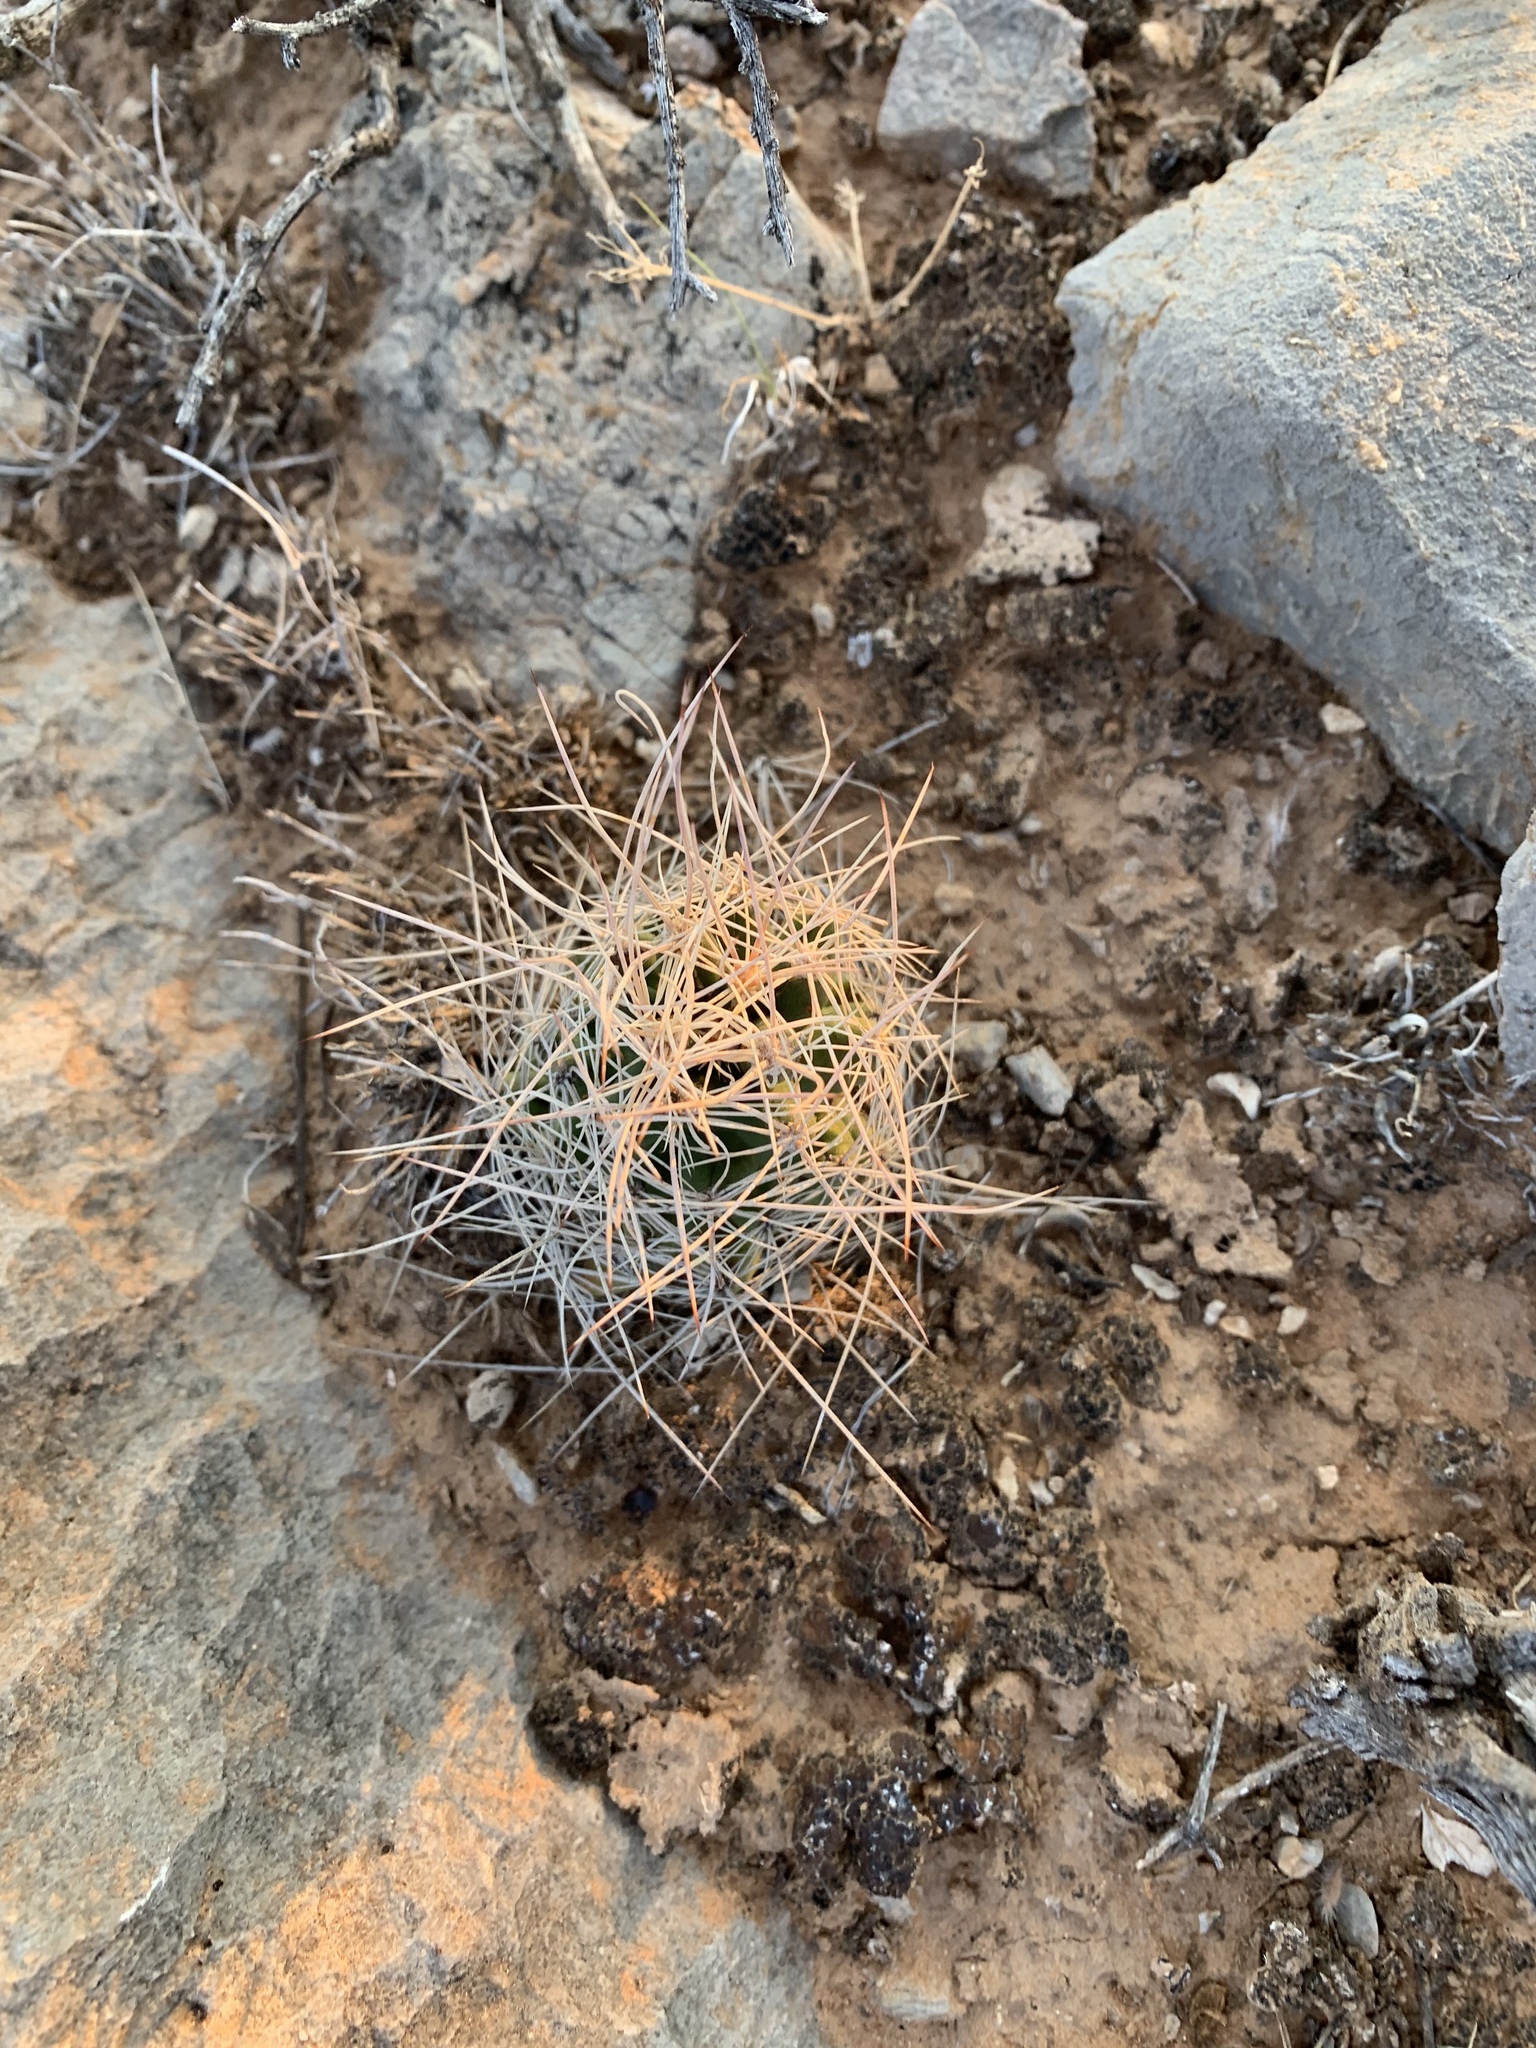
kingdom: Plantae
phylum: Tracheophyta
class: Magnoliopsida
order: Caryophyllales
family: Cactaceae
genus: Coryphantha
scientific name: Coryphantha macromeris
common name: Nipple beehive cactus
